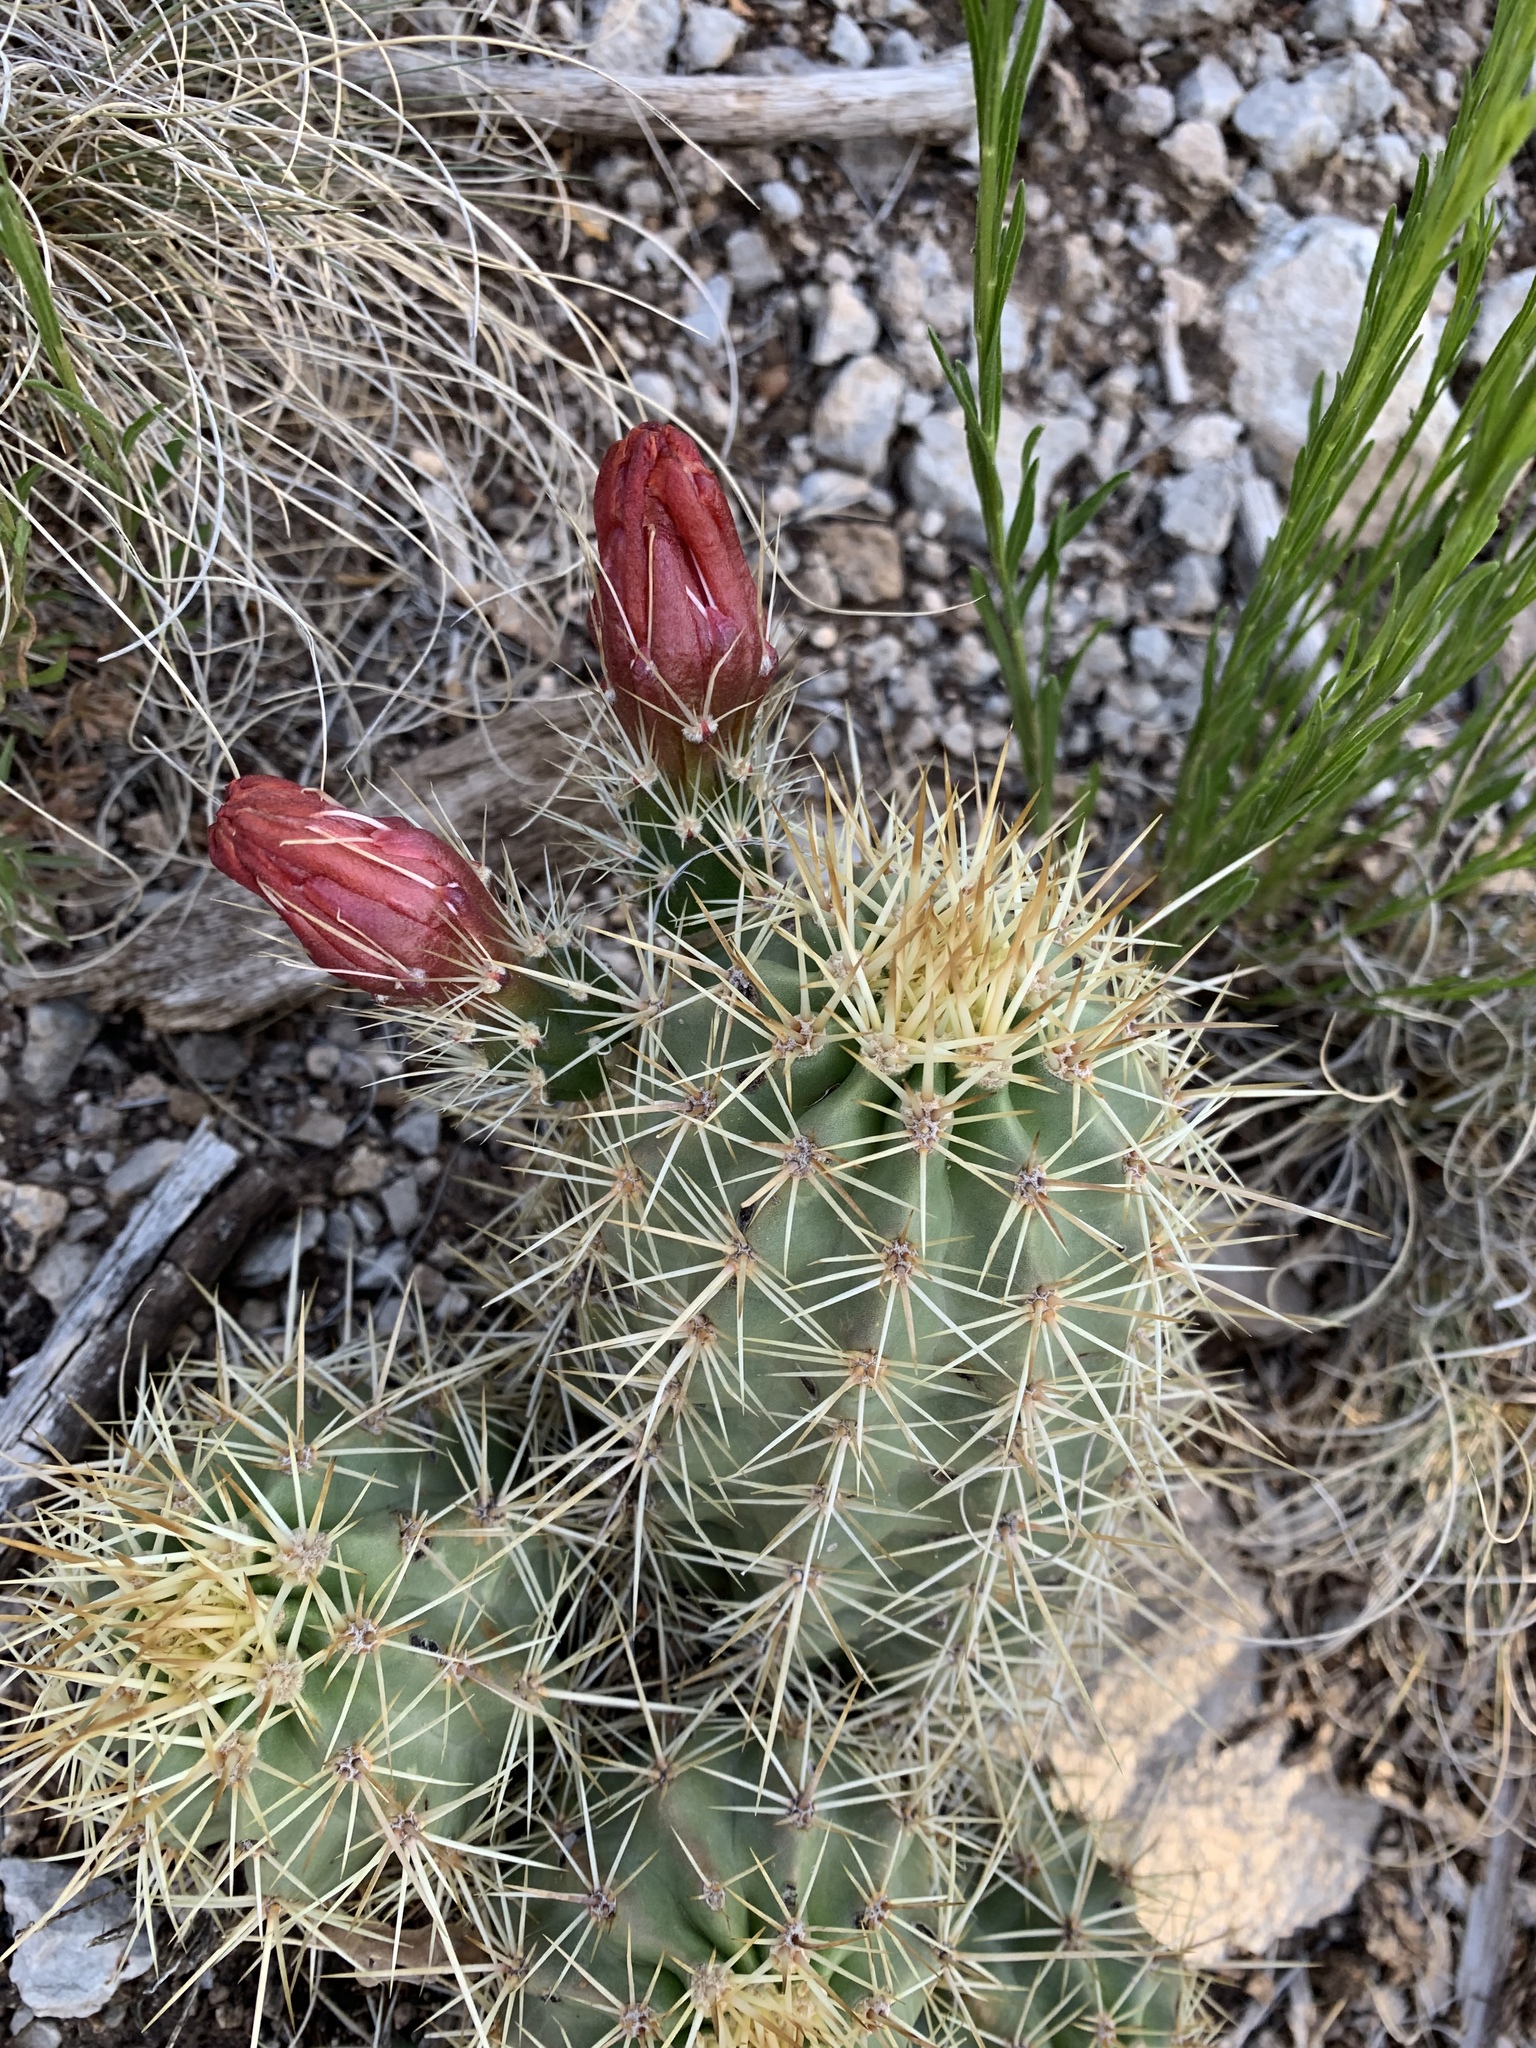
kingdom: Plantae
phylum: Tracheophyta
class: Magnoliopsida
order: Caryophyllales
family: Cactaceae
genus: Echinocereus
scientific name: Echinocereus coccineus
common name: Scarlet hedgehog cactus
